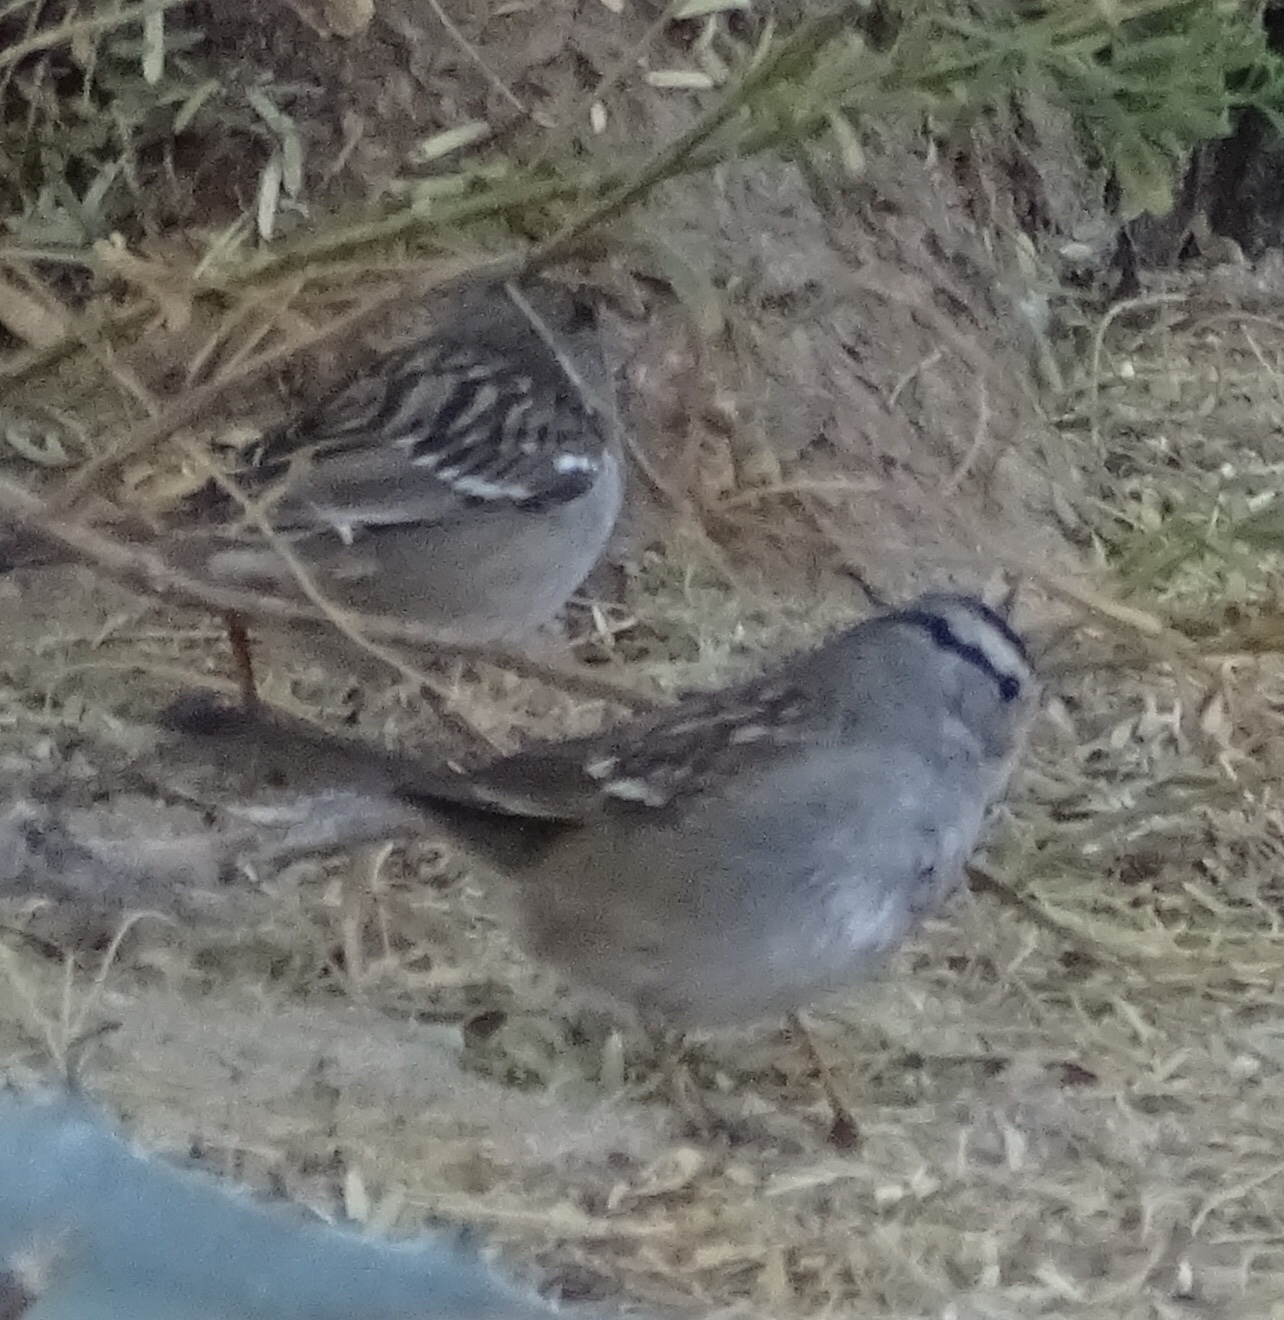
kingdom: Animalia
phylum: Chordata
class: Aves
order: Passeriformes
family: Passerellidae
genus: Zonotrichia
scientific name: Zonotrichia leucophrys
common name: White-crowned sparrow
